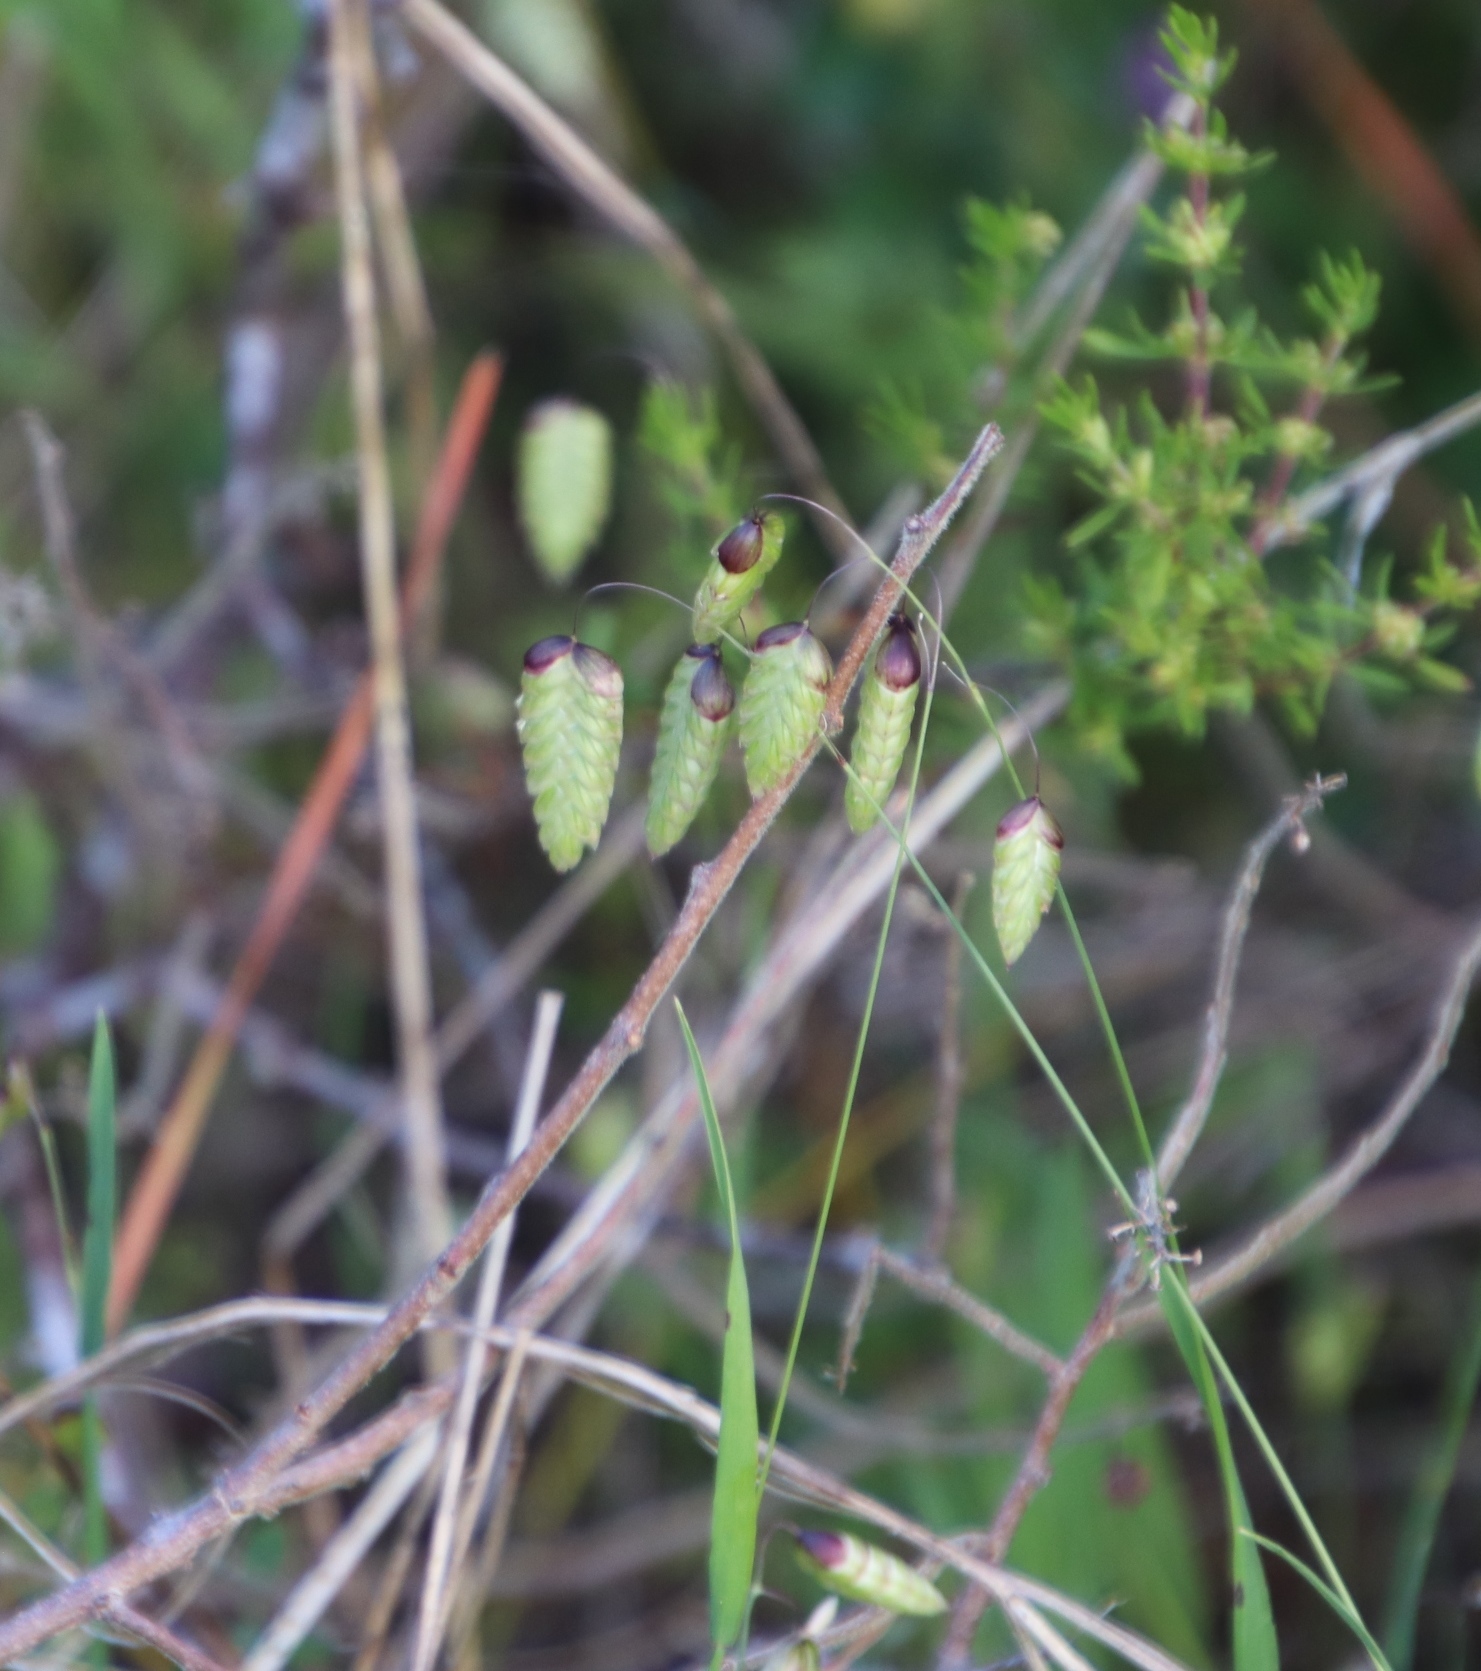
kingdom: Plantae
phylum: Tracheophyta
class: Liliopsida
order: Poales
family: Poaceae
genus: Briza
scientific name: Briza maxima
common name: Big quakinggrass
